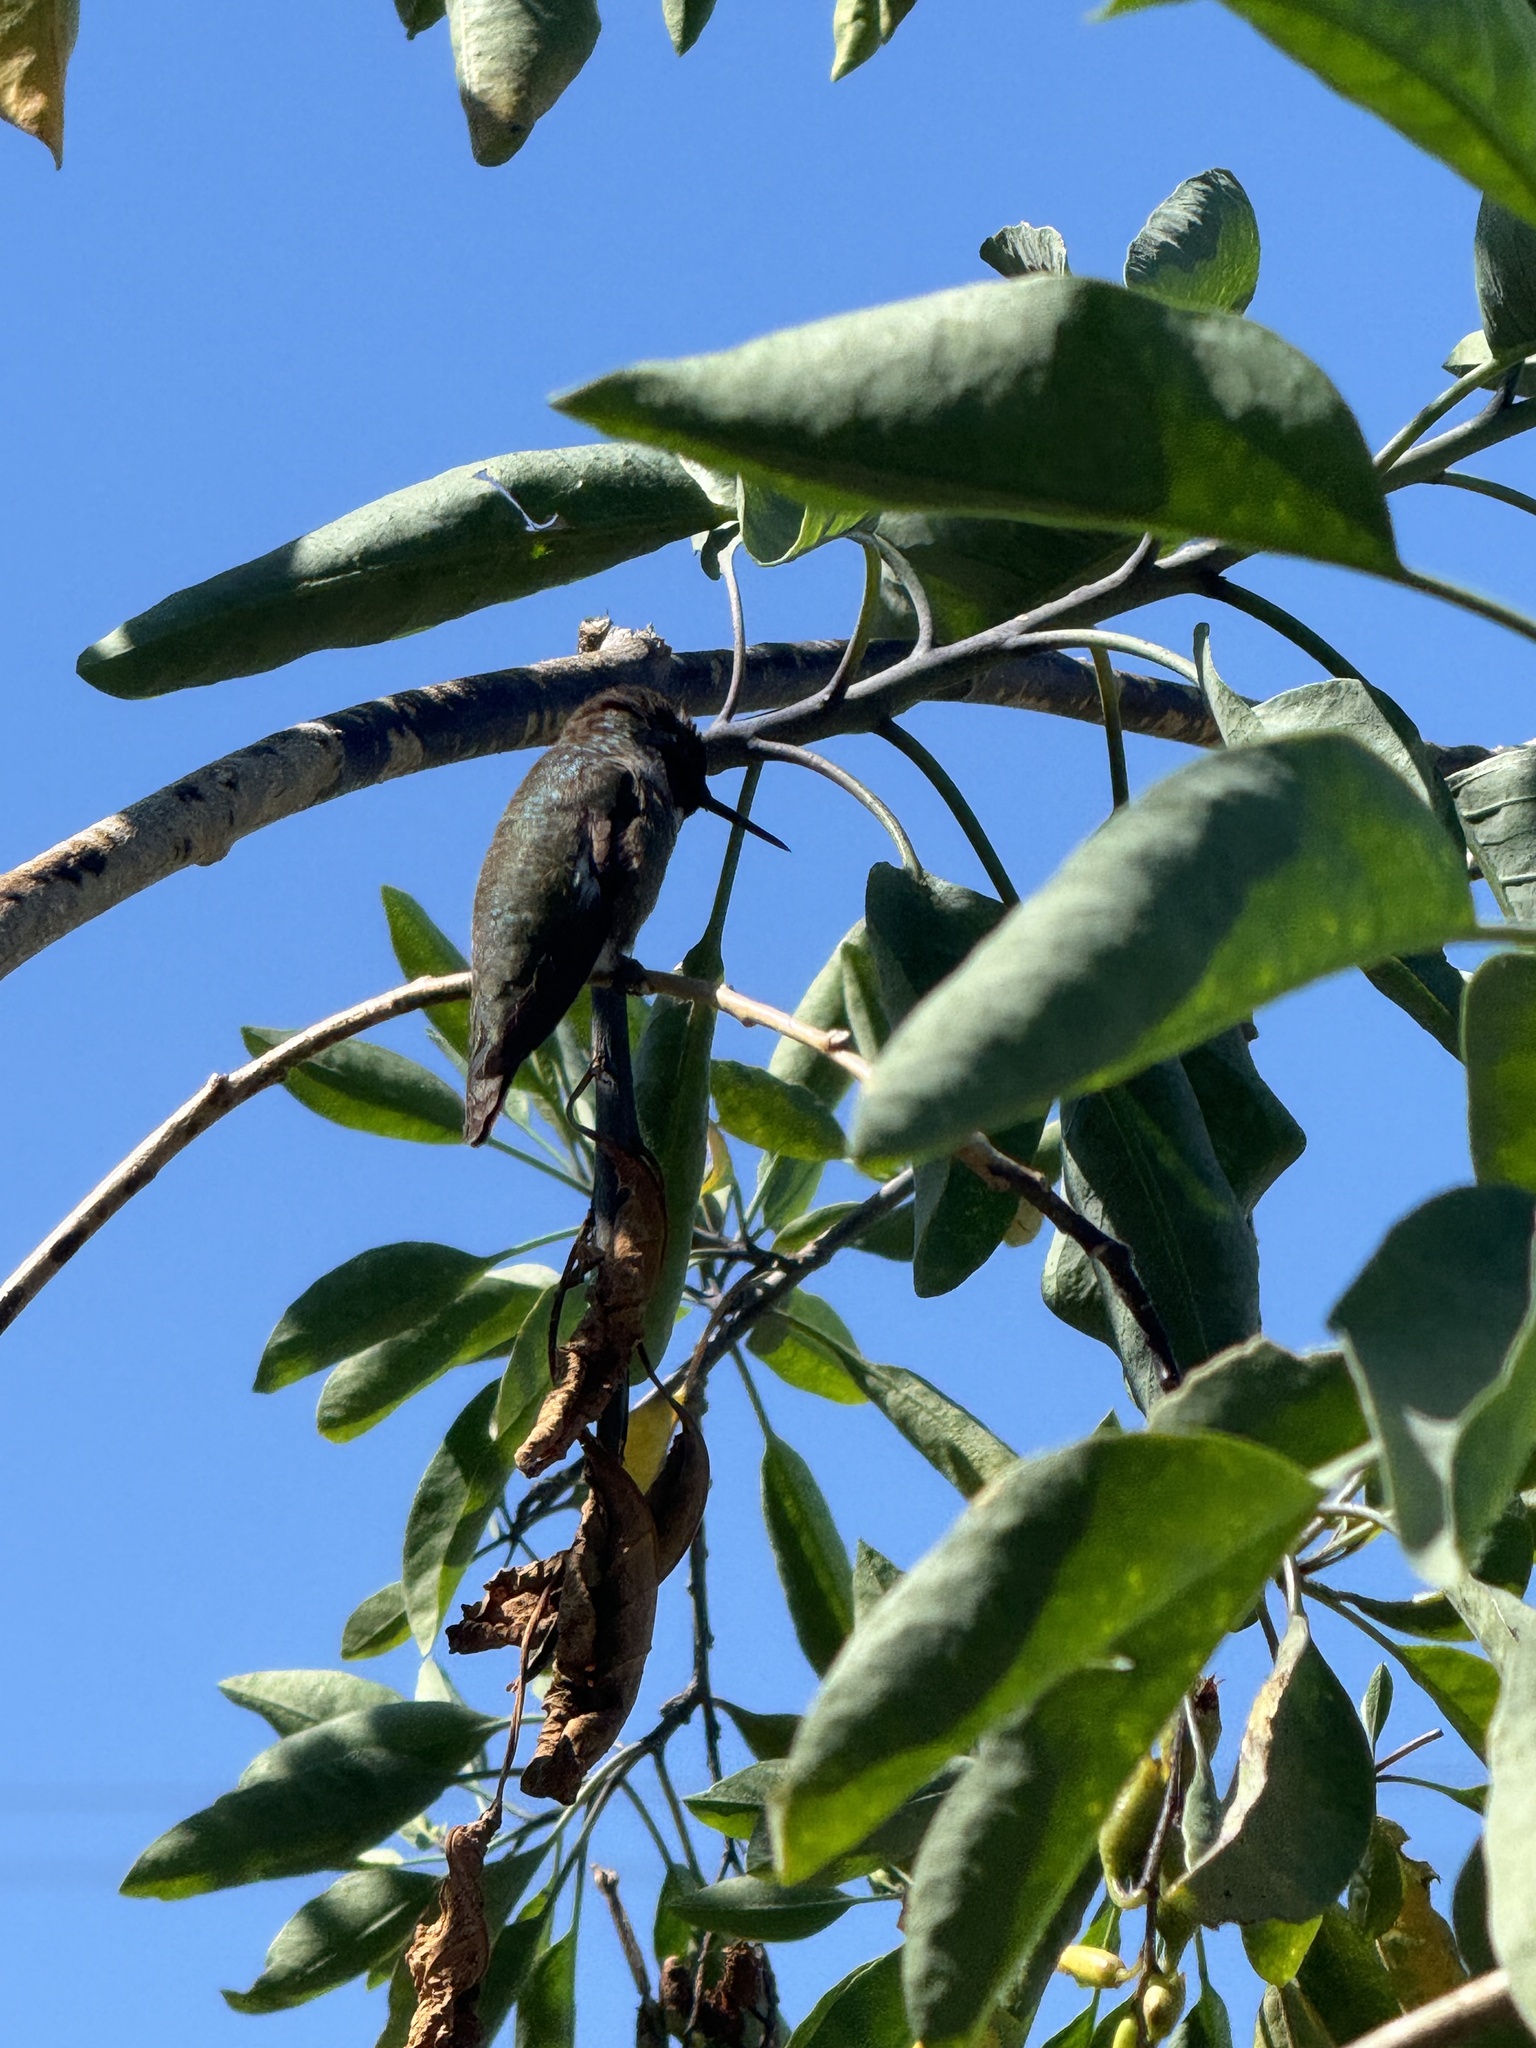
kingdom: Animalia
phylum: Chordata
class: Aves
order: Apodiformes
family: Trochilidae
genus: Calypte
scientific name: Calypte anna
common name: Anna's hummingbird
